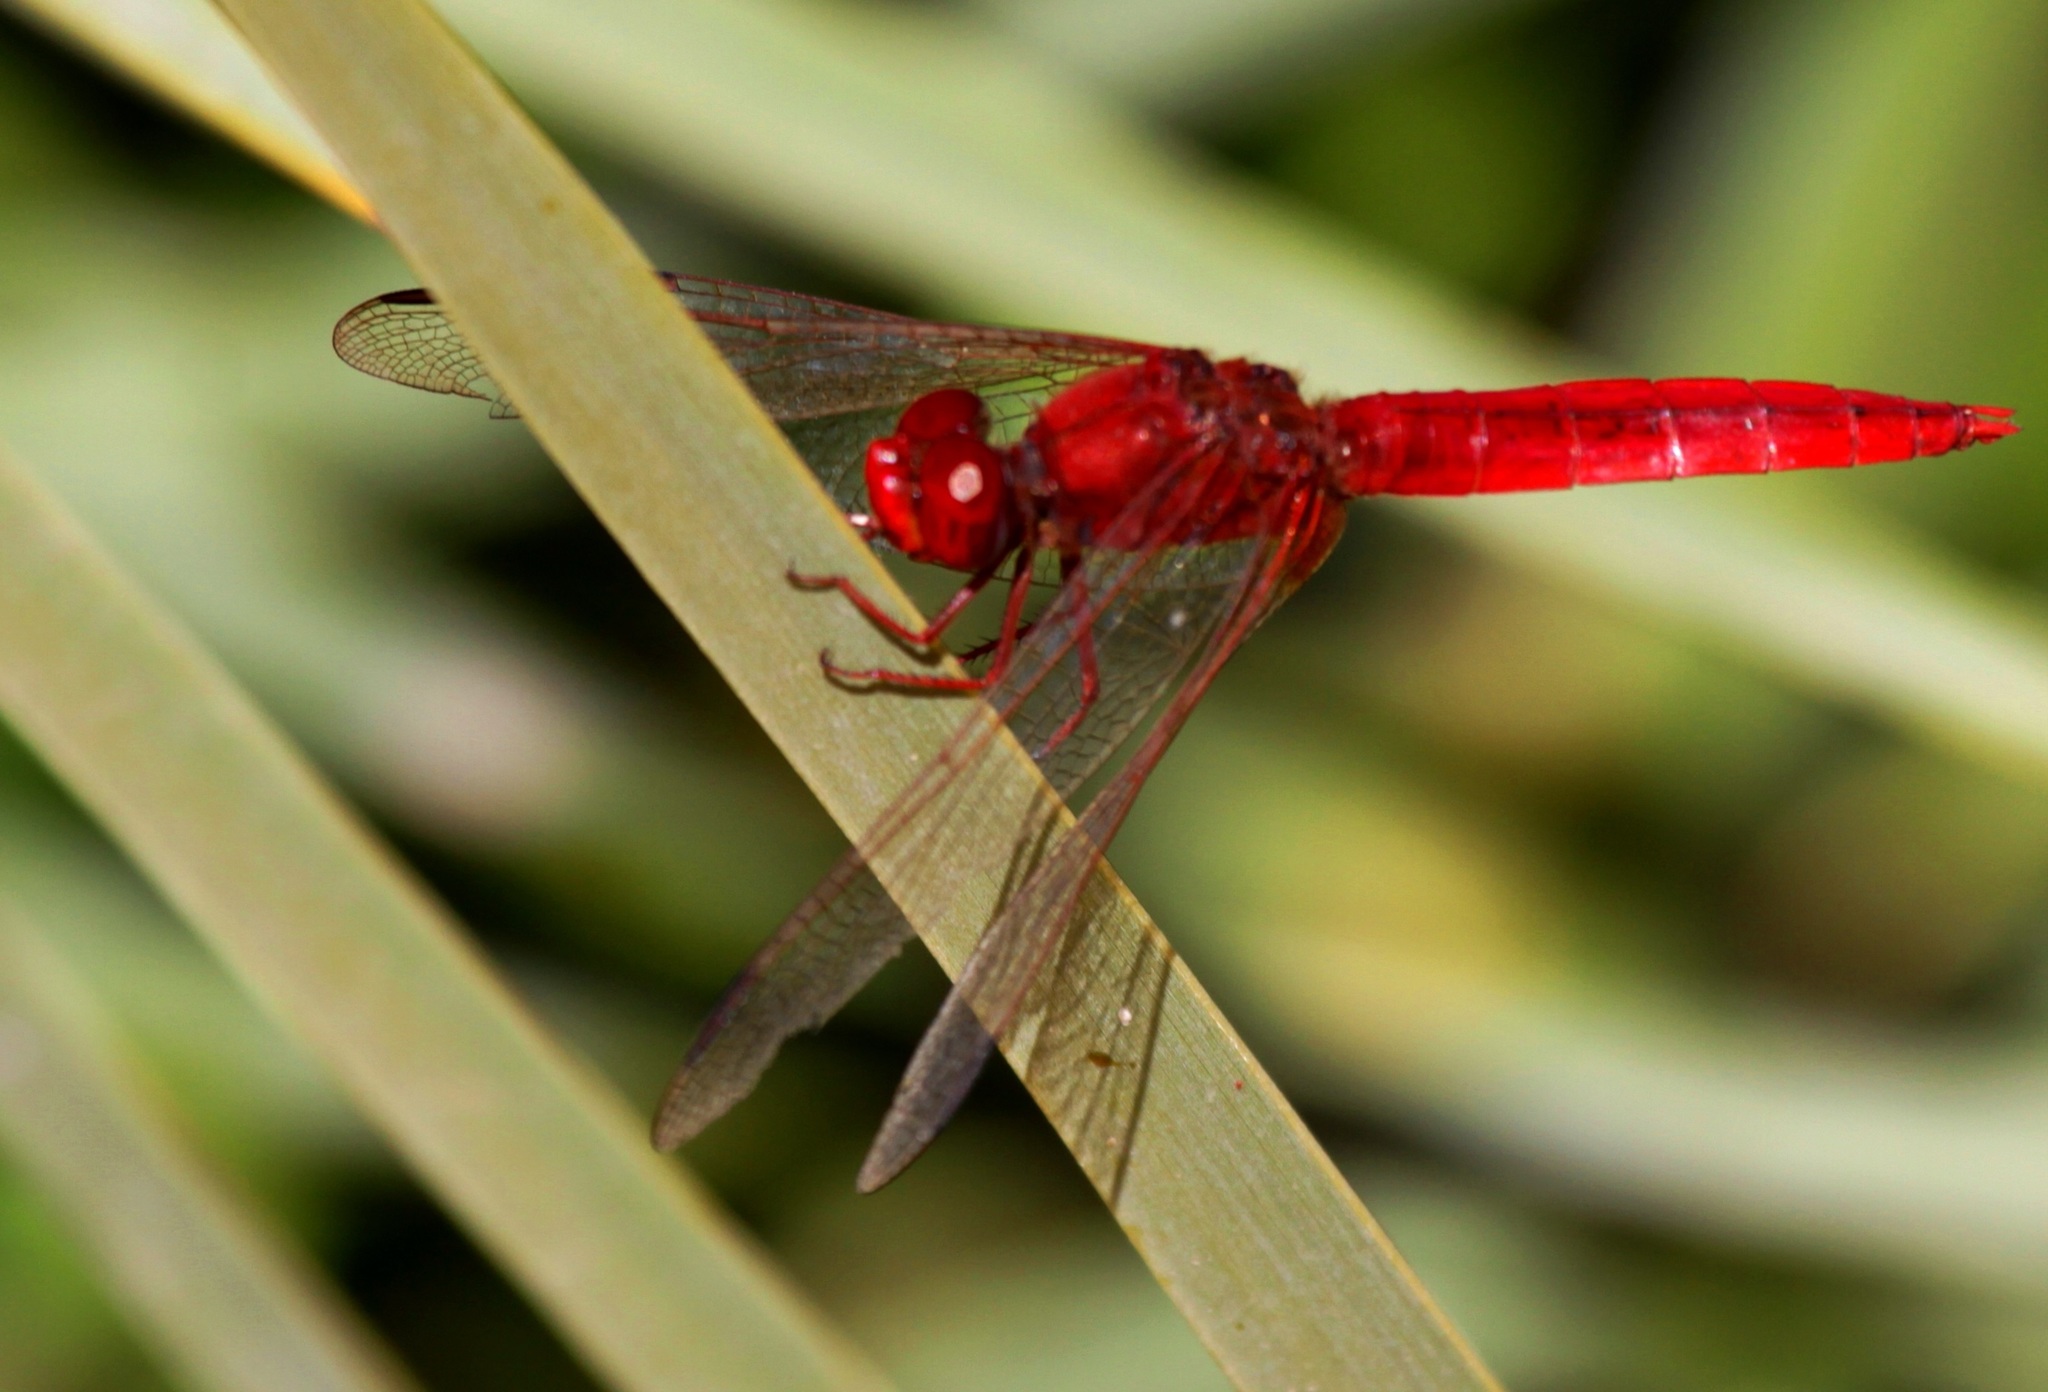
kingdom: Animalia
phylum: Arthropoda
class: Insecta
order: Odonata
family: Libellulidae
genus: Crocothemis
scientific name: Crocothemis erythraea
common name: Scarlet dragonfly
